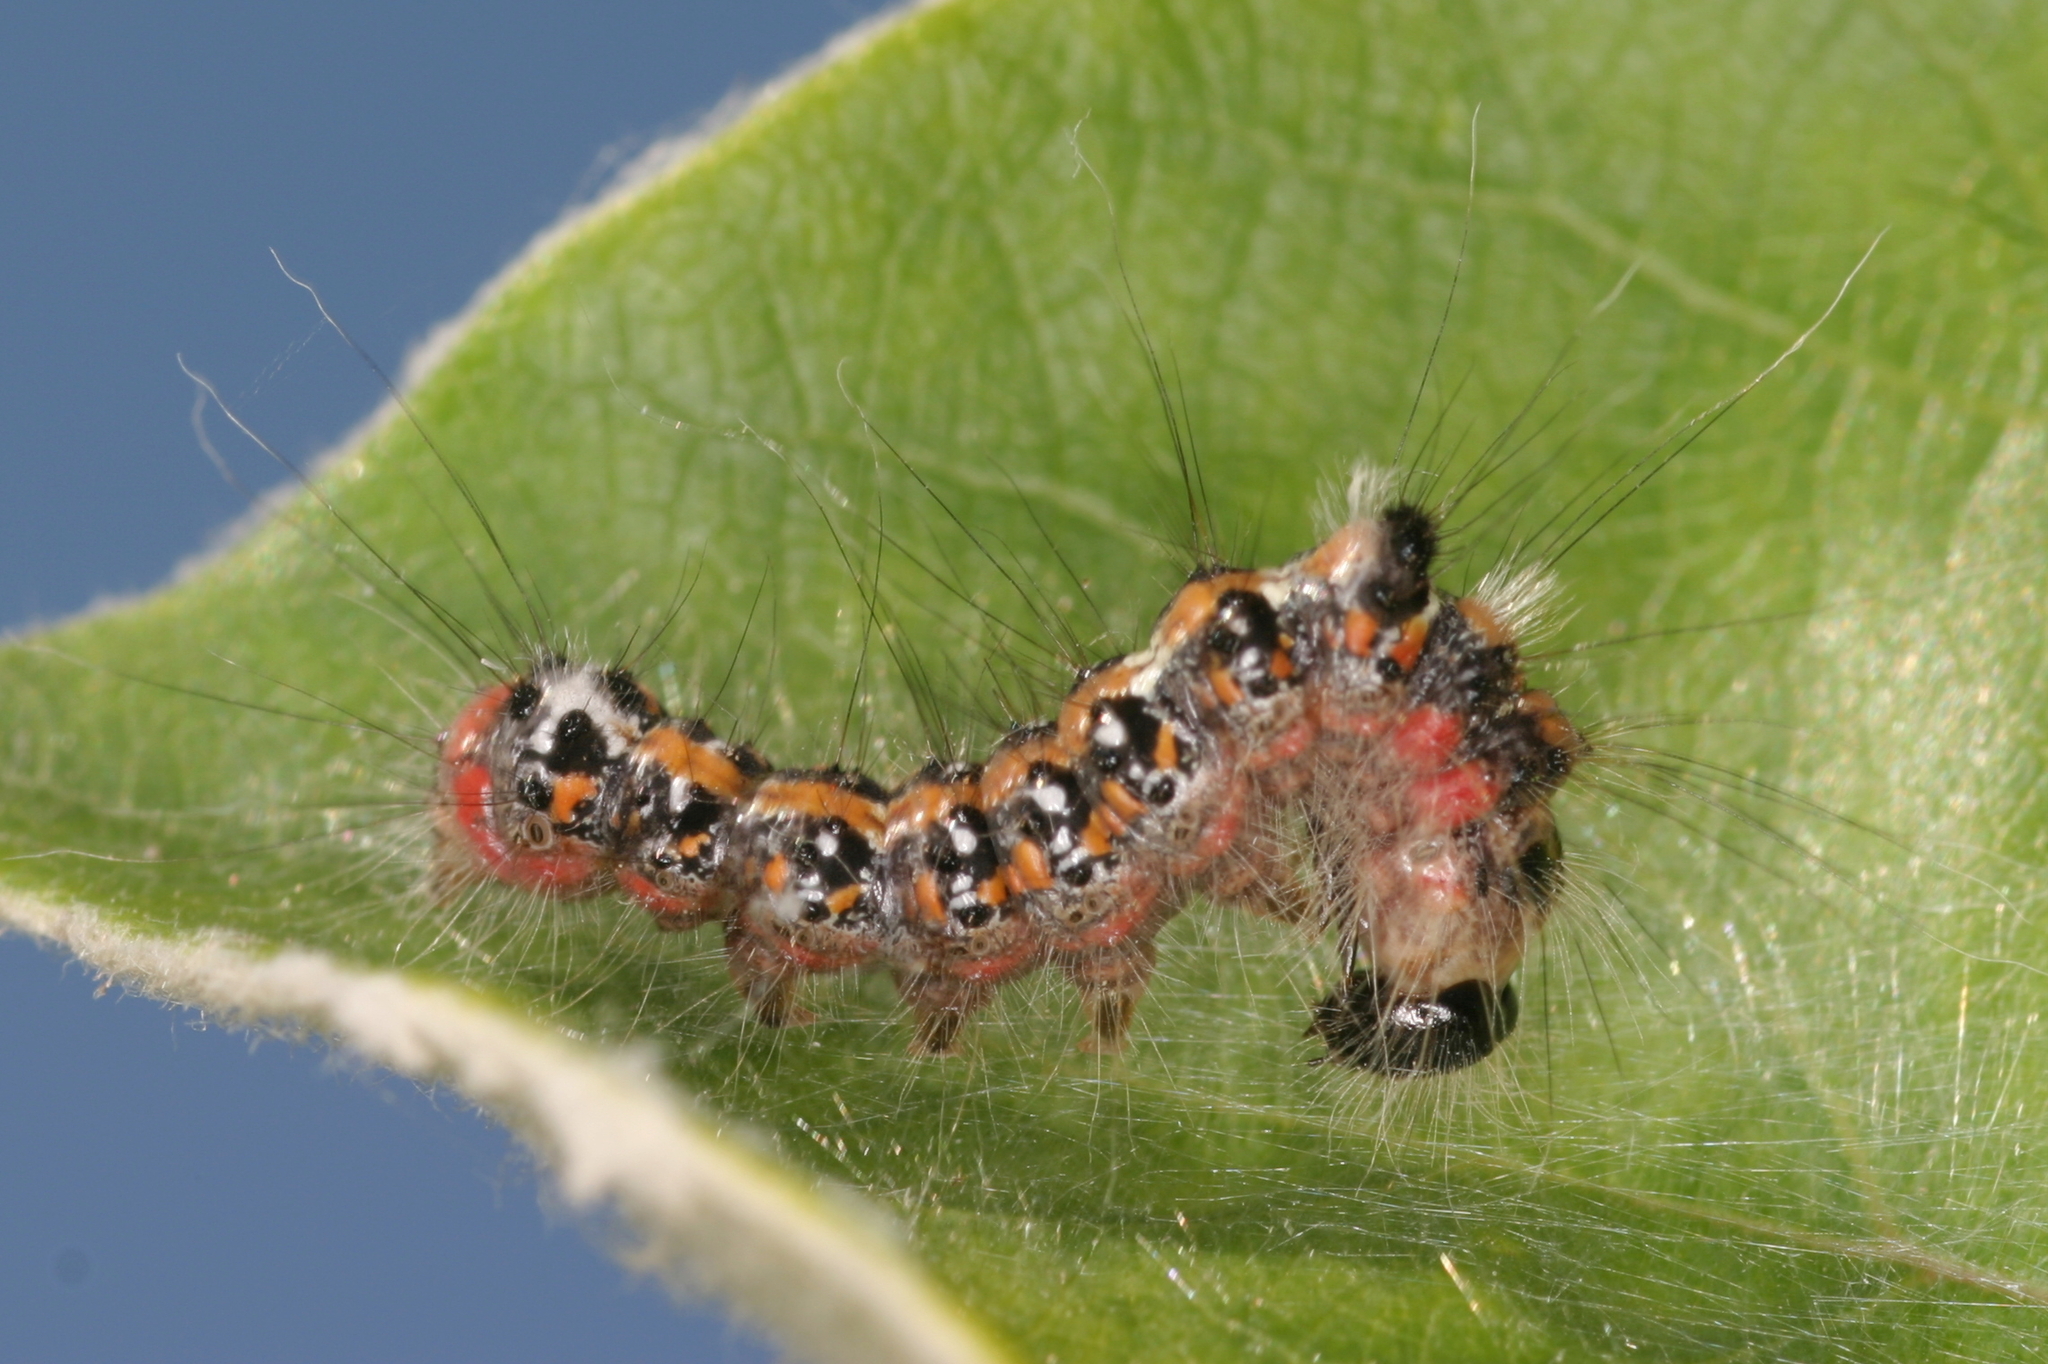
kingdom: Animalia
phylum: Arthropoda
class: Insecta
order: Lepidoptera
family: Noctuidae
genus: Acronicta
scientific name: Acronicta tridens
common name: Dark dagger
